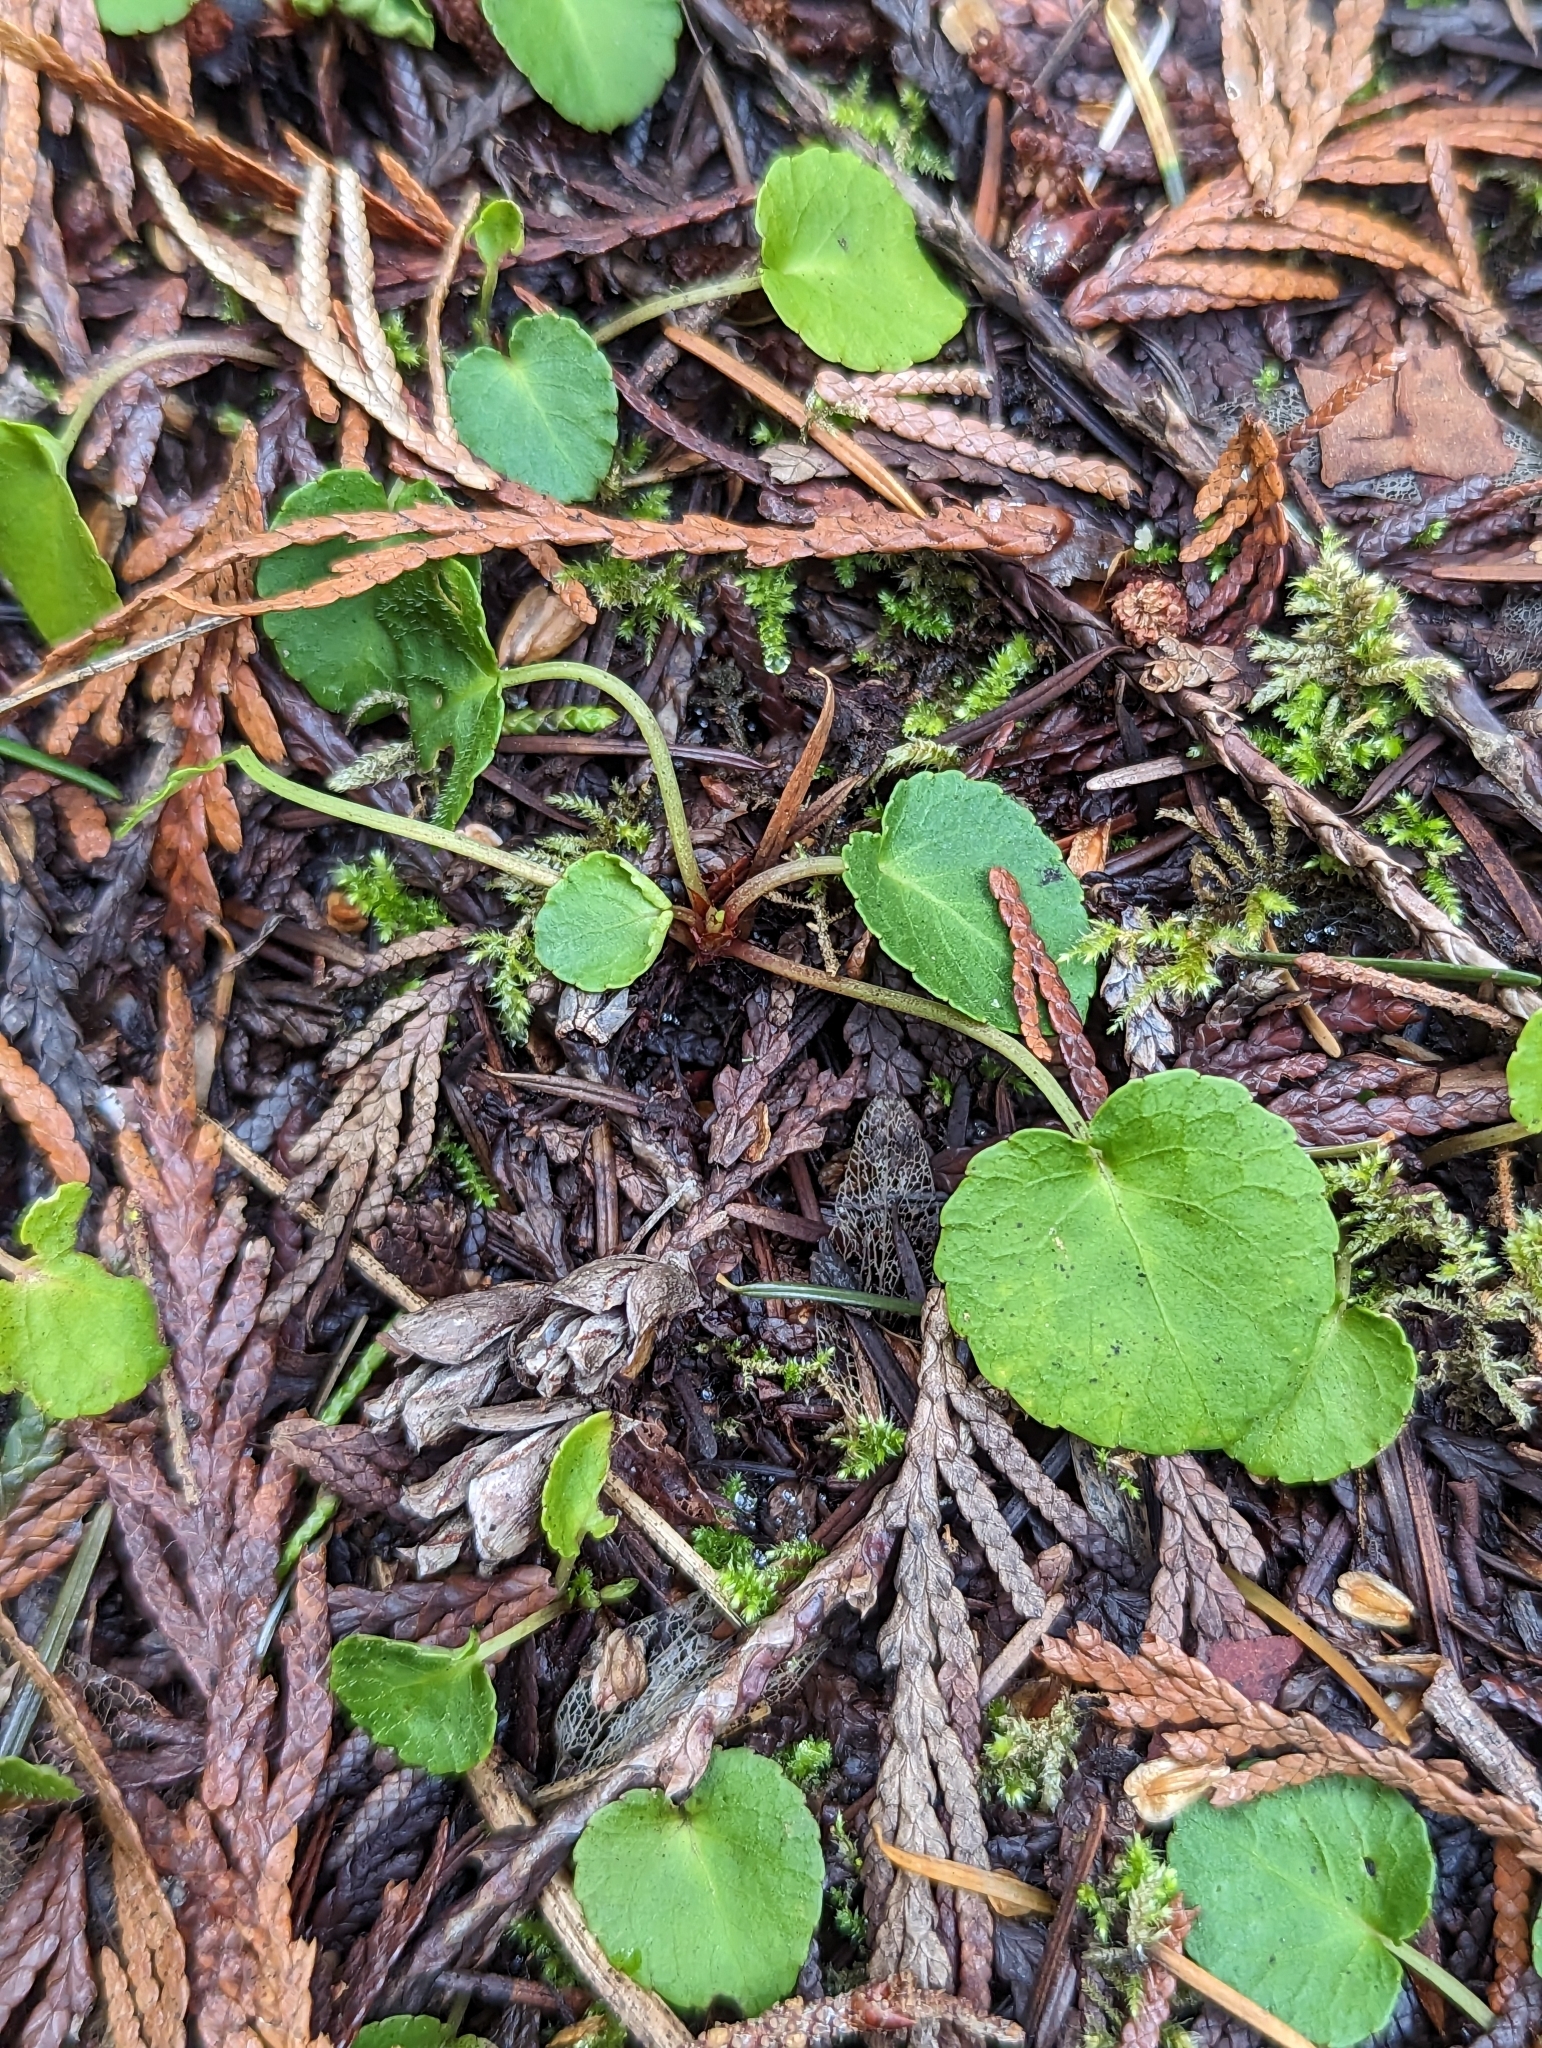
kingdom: Plantae
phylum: Tracheophyta
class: Magnoliopsida
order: Malpighiales
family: Violaceae
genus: Viola
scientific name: Viola sempervirens
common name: Evergreen violet
